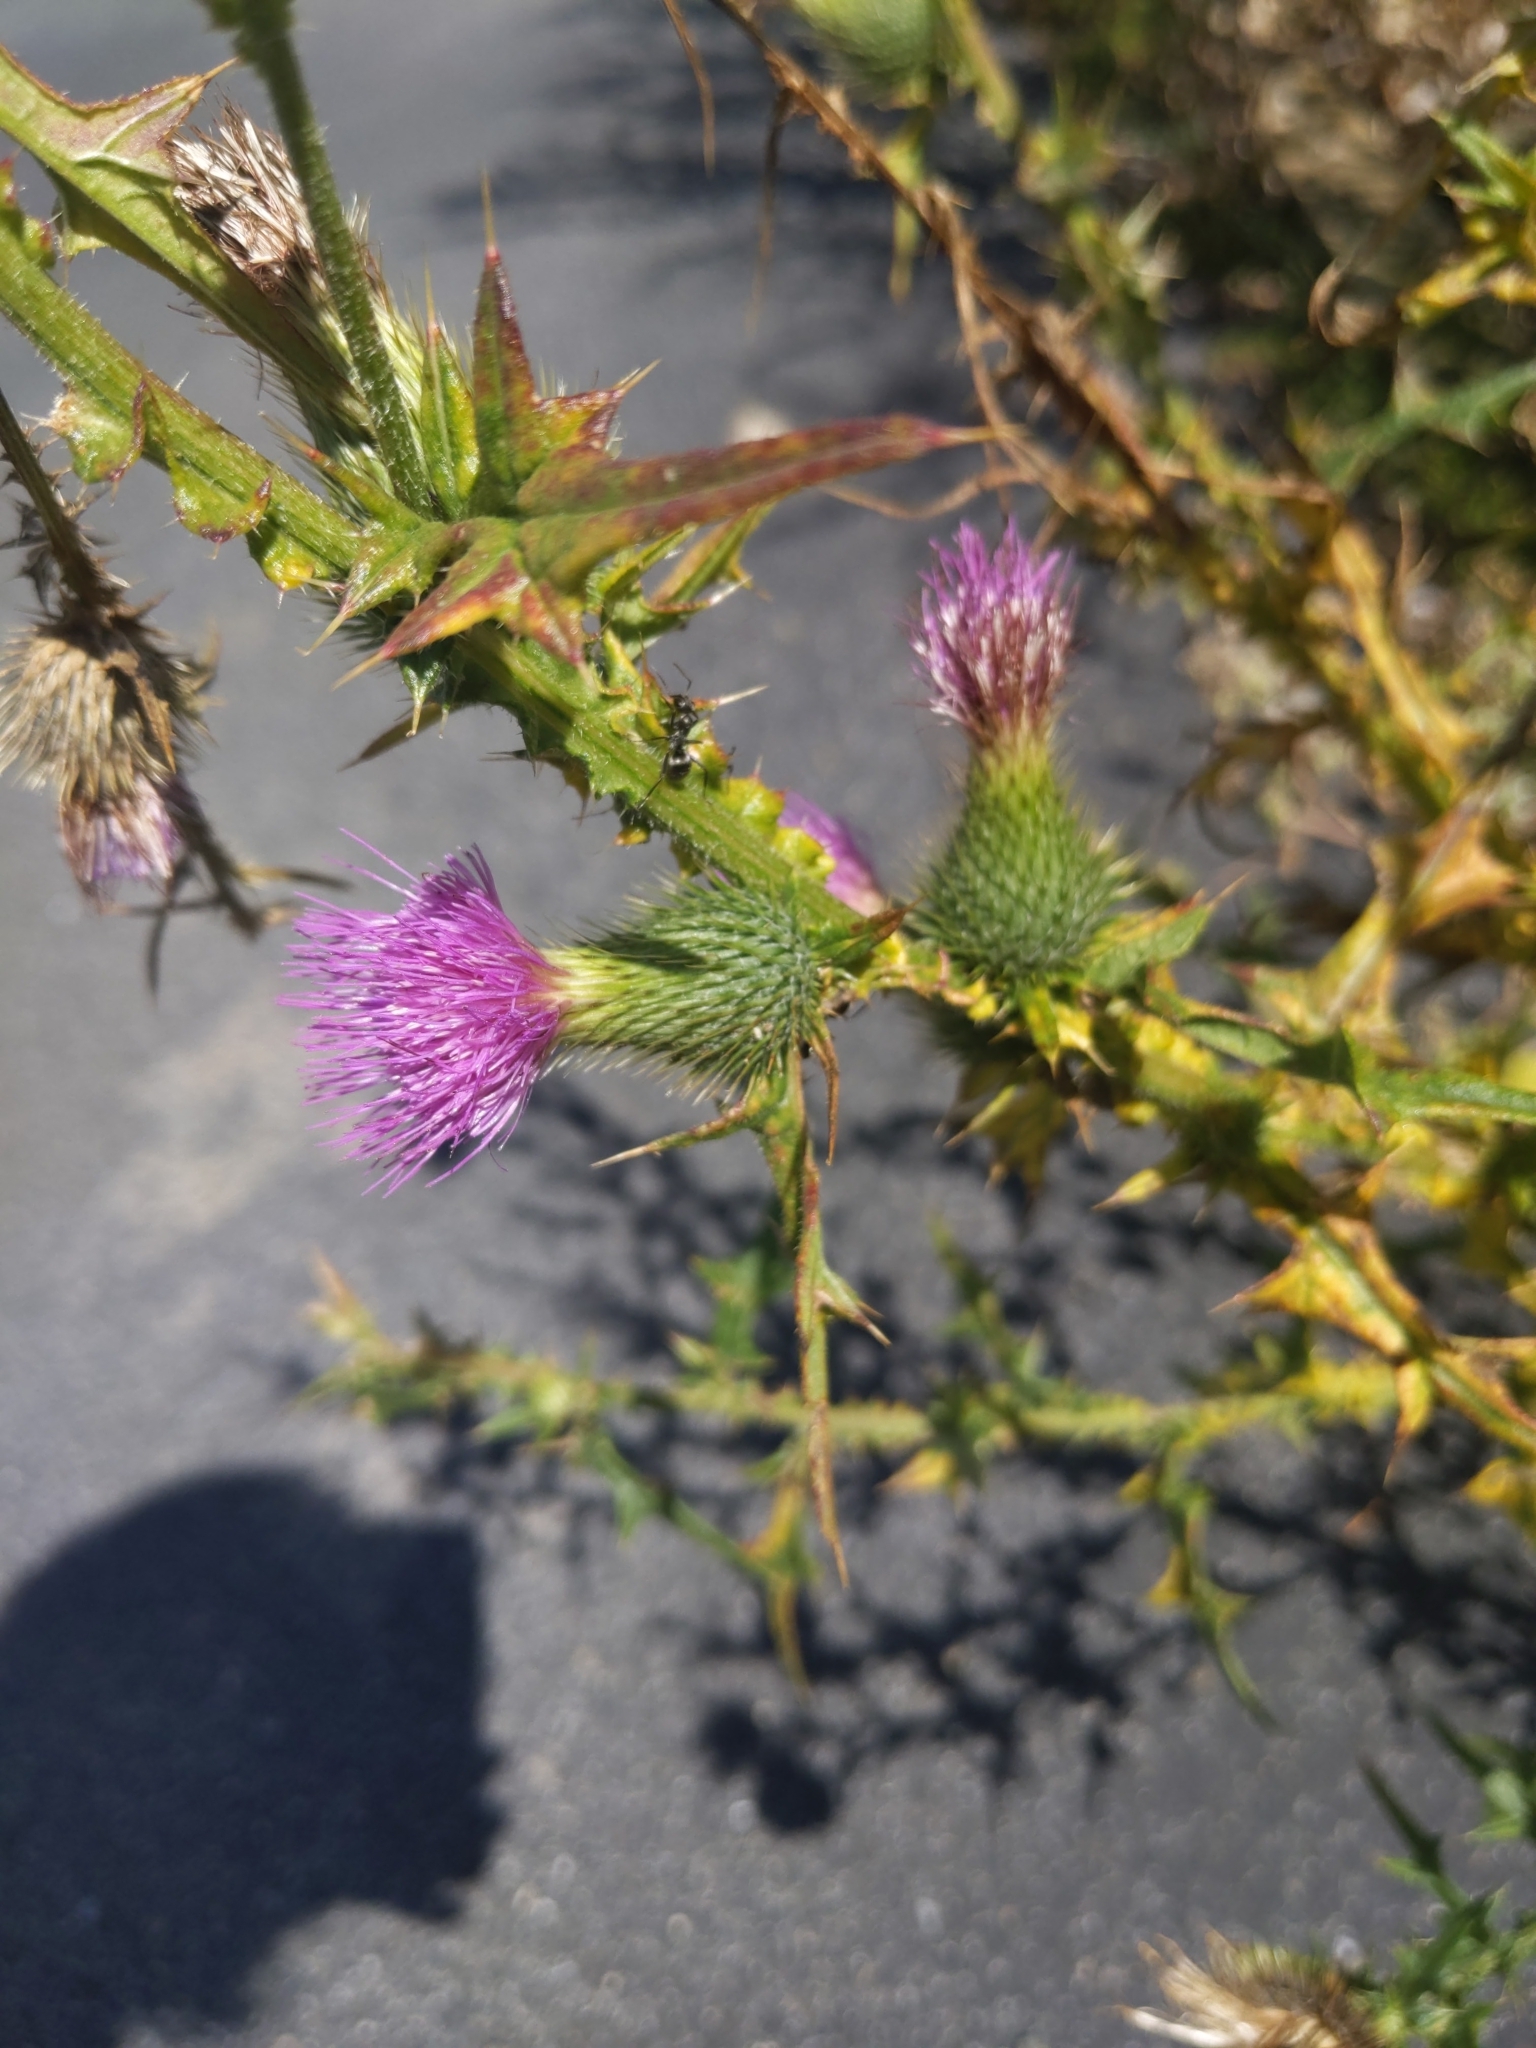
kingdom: Plantae
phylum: Tracheophyta
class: Magnoliopsida
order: Asterales
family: Asteraceae
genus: Cirsium
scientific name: Cirsium vulgare
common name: Bull thistle
